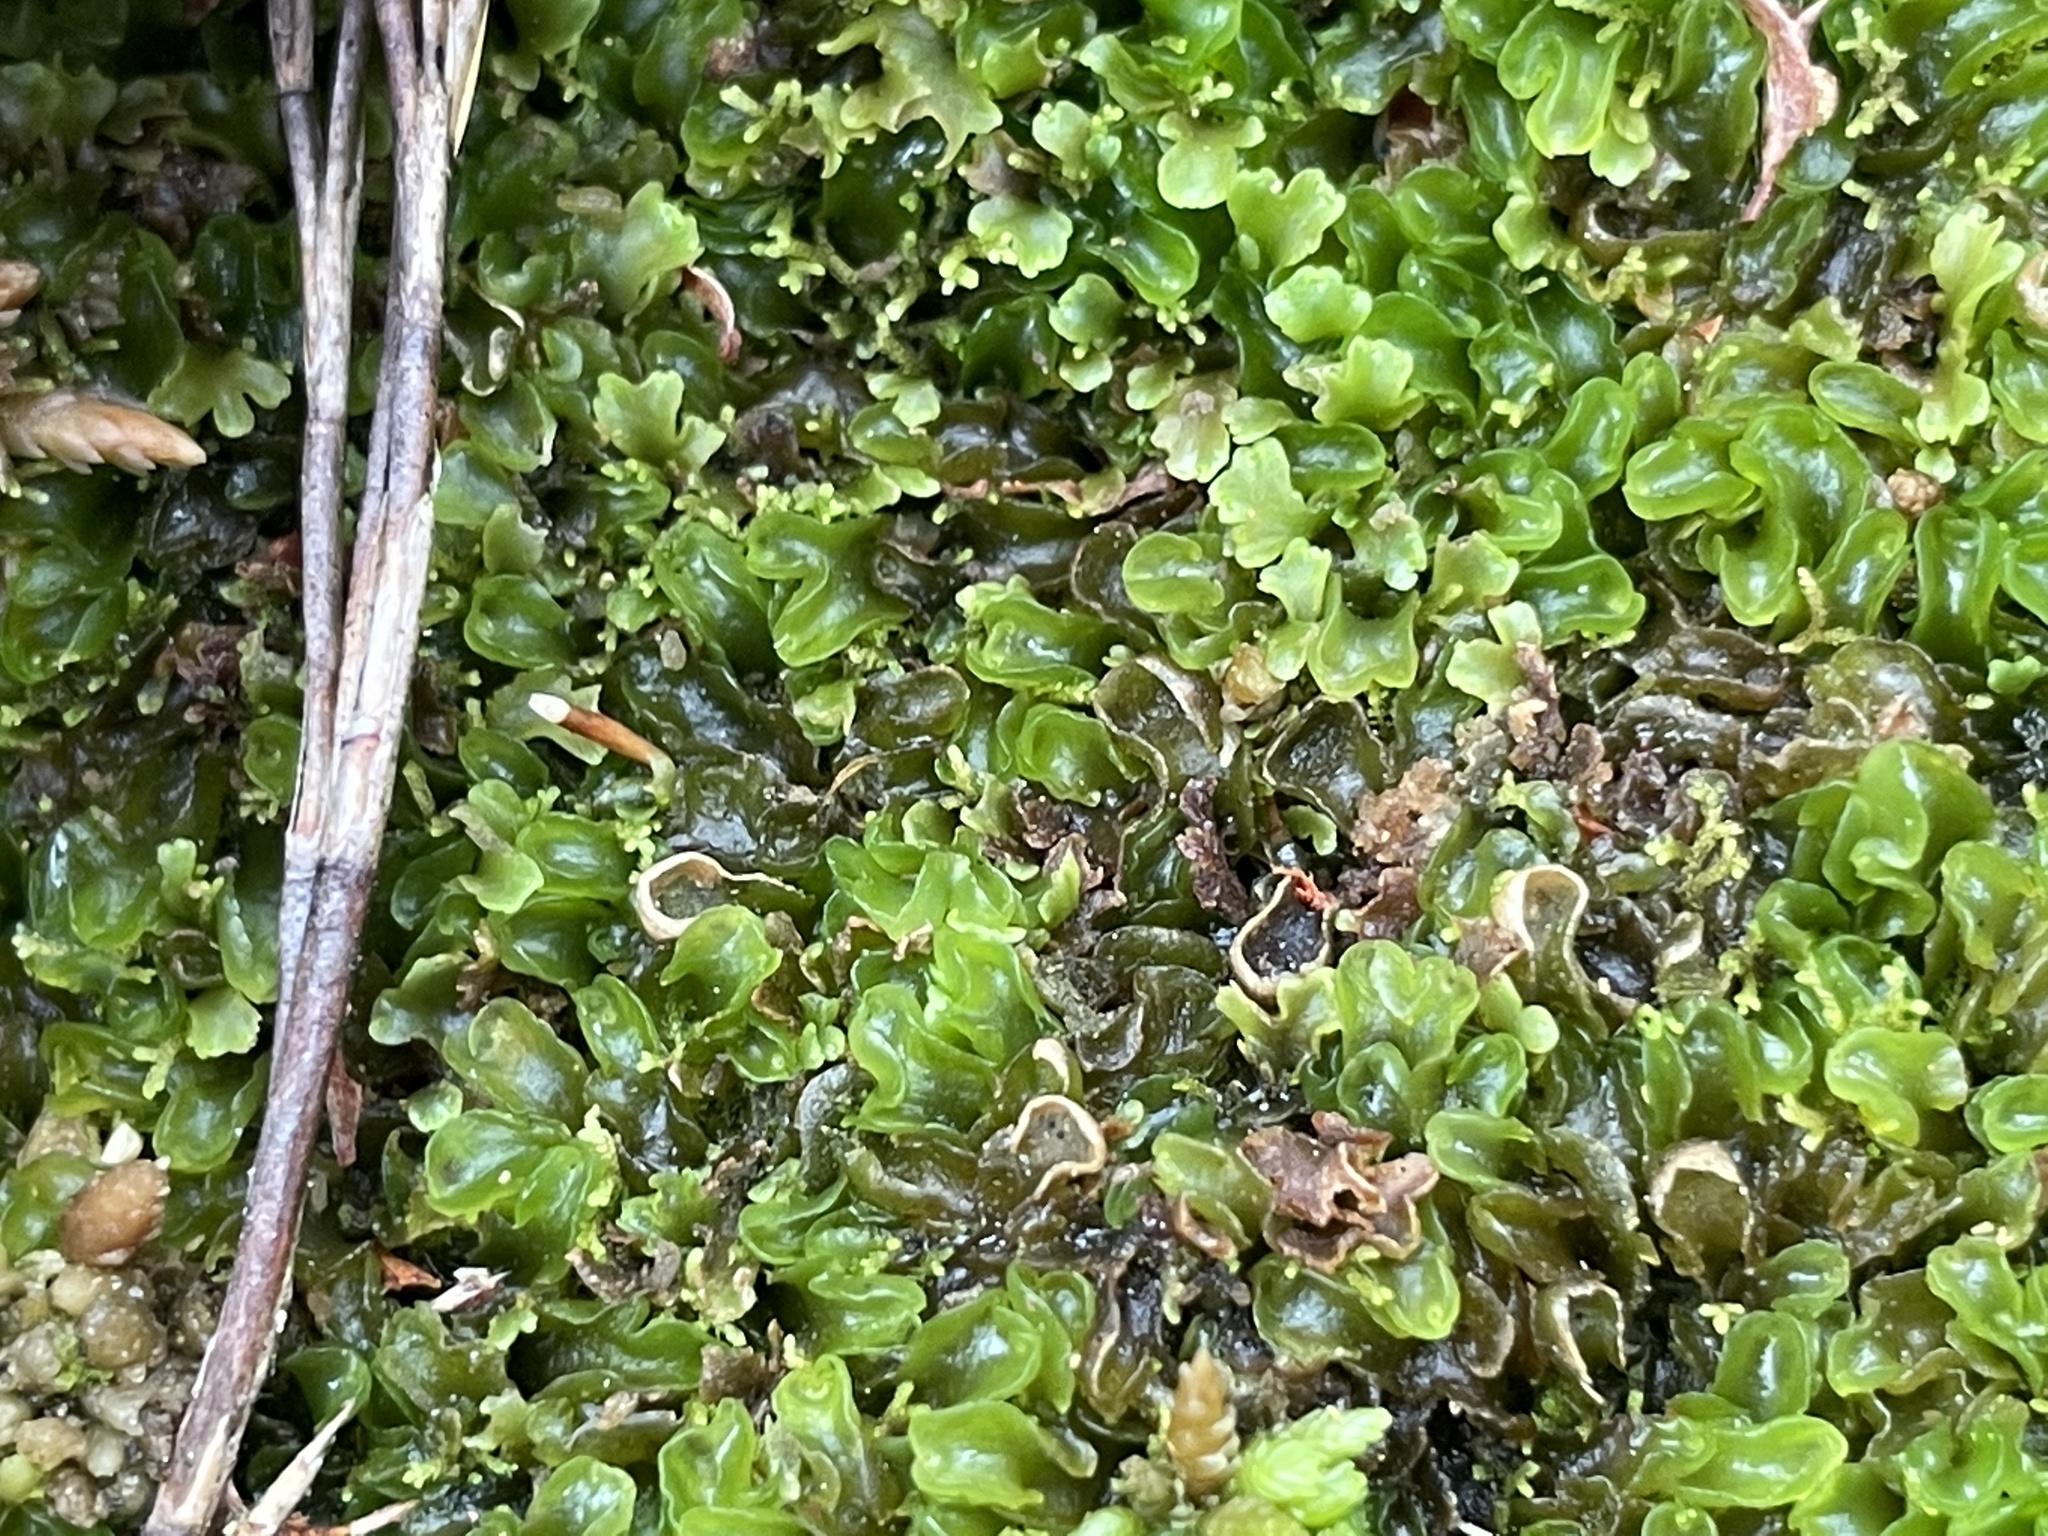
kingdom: Plantae
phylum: Marchantiophyta
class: Jungermanniopsida
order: Metzgeriales
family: Aneuraceae
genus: Riccardia
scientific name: Riccardia cochleata
